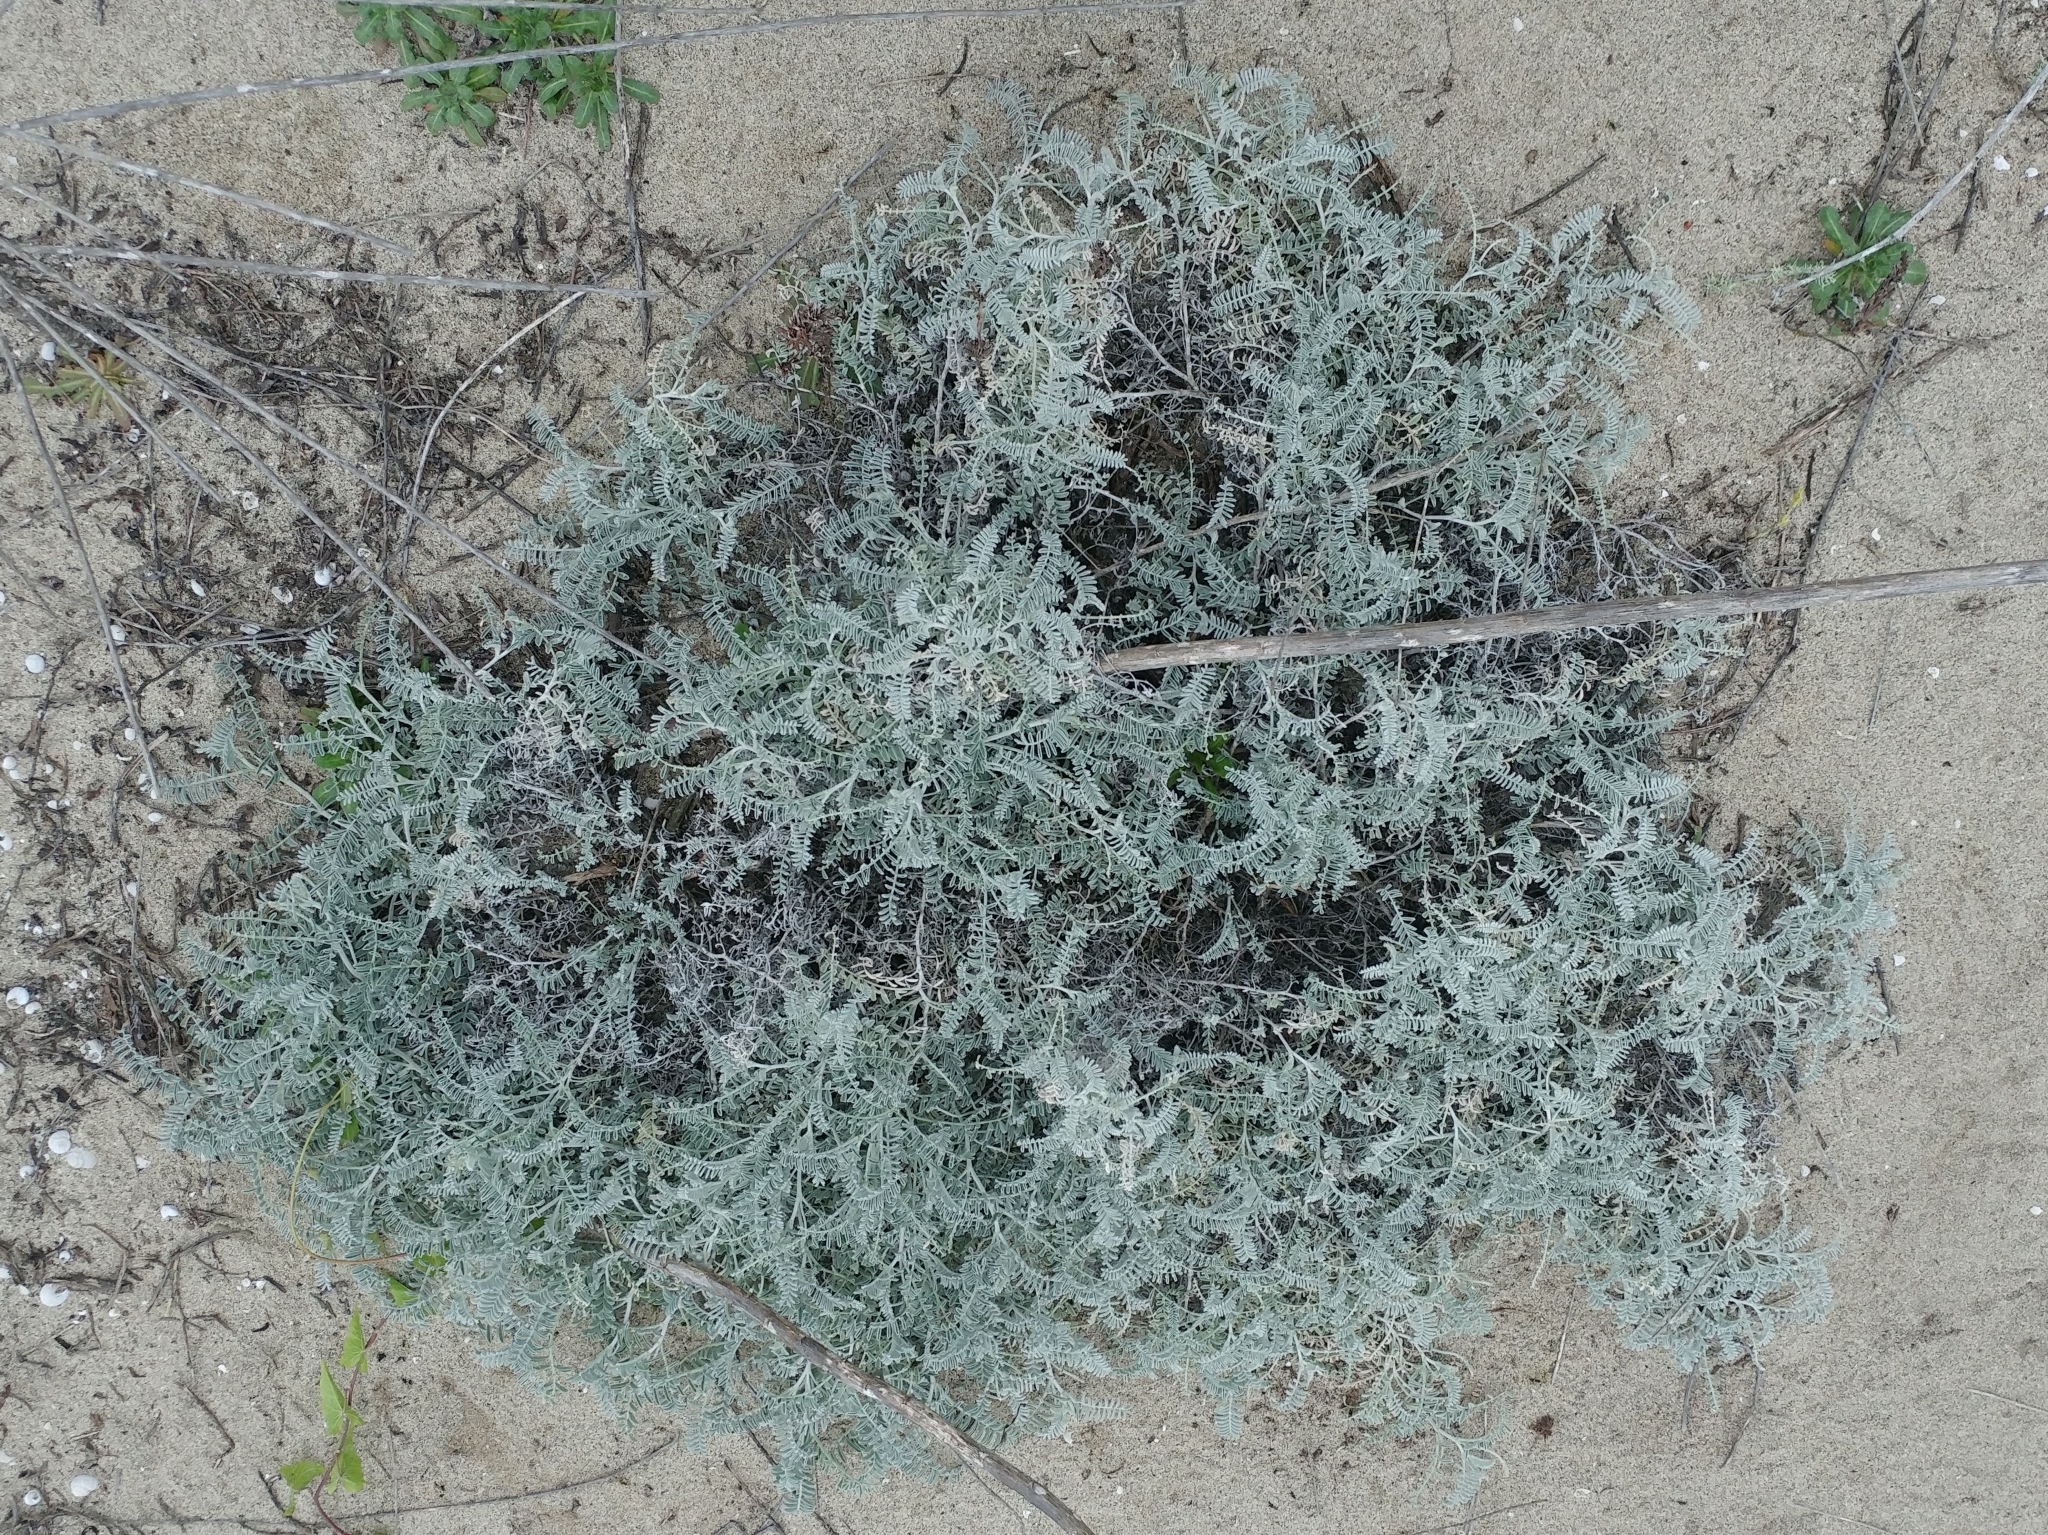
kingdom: Plantae
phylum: Tracheophyta
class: Magnoliopsida
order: Fabales
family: Fabaceae
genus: Astragalus
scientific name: Astragalus miguelensis
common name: San miguel milk-vetch
